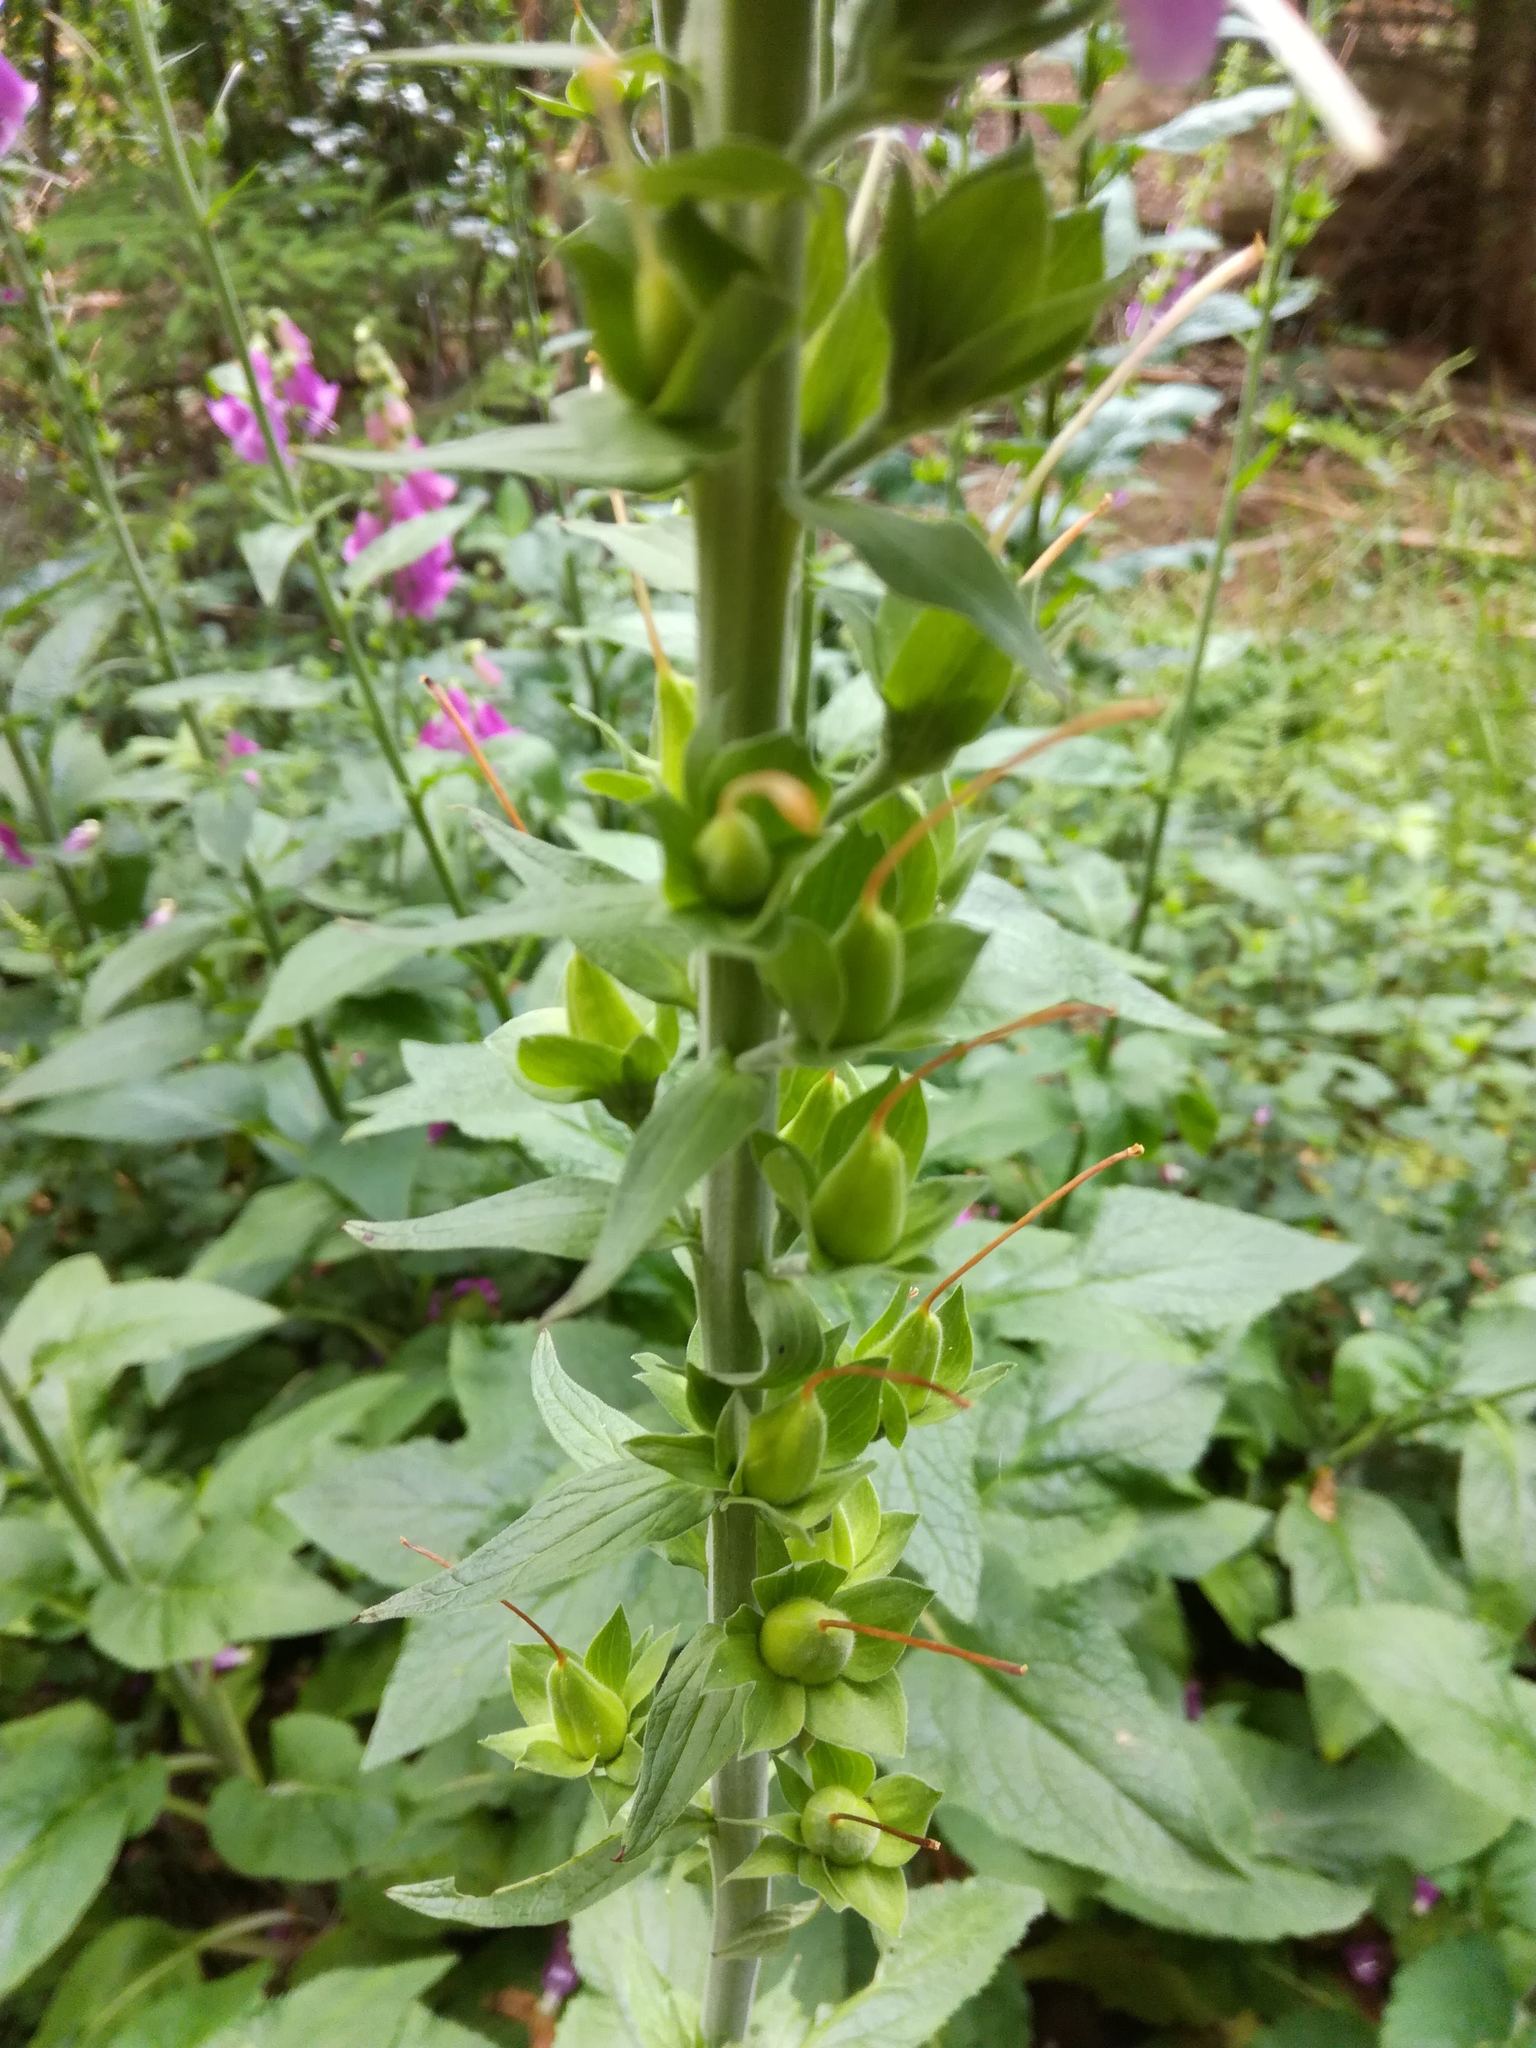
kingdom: Plantae
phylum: Tracheophyta
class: Magnoliopsida
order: Lamiales
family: Plantaginaceae
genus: Digitalis
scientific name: Digitalis purpurea
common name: Foxglove
